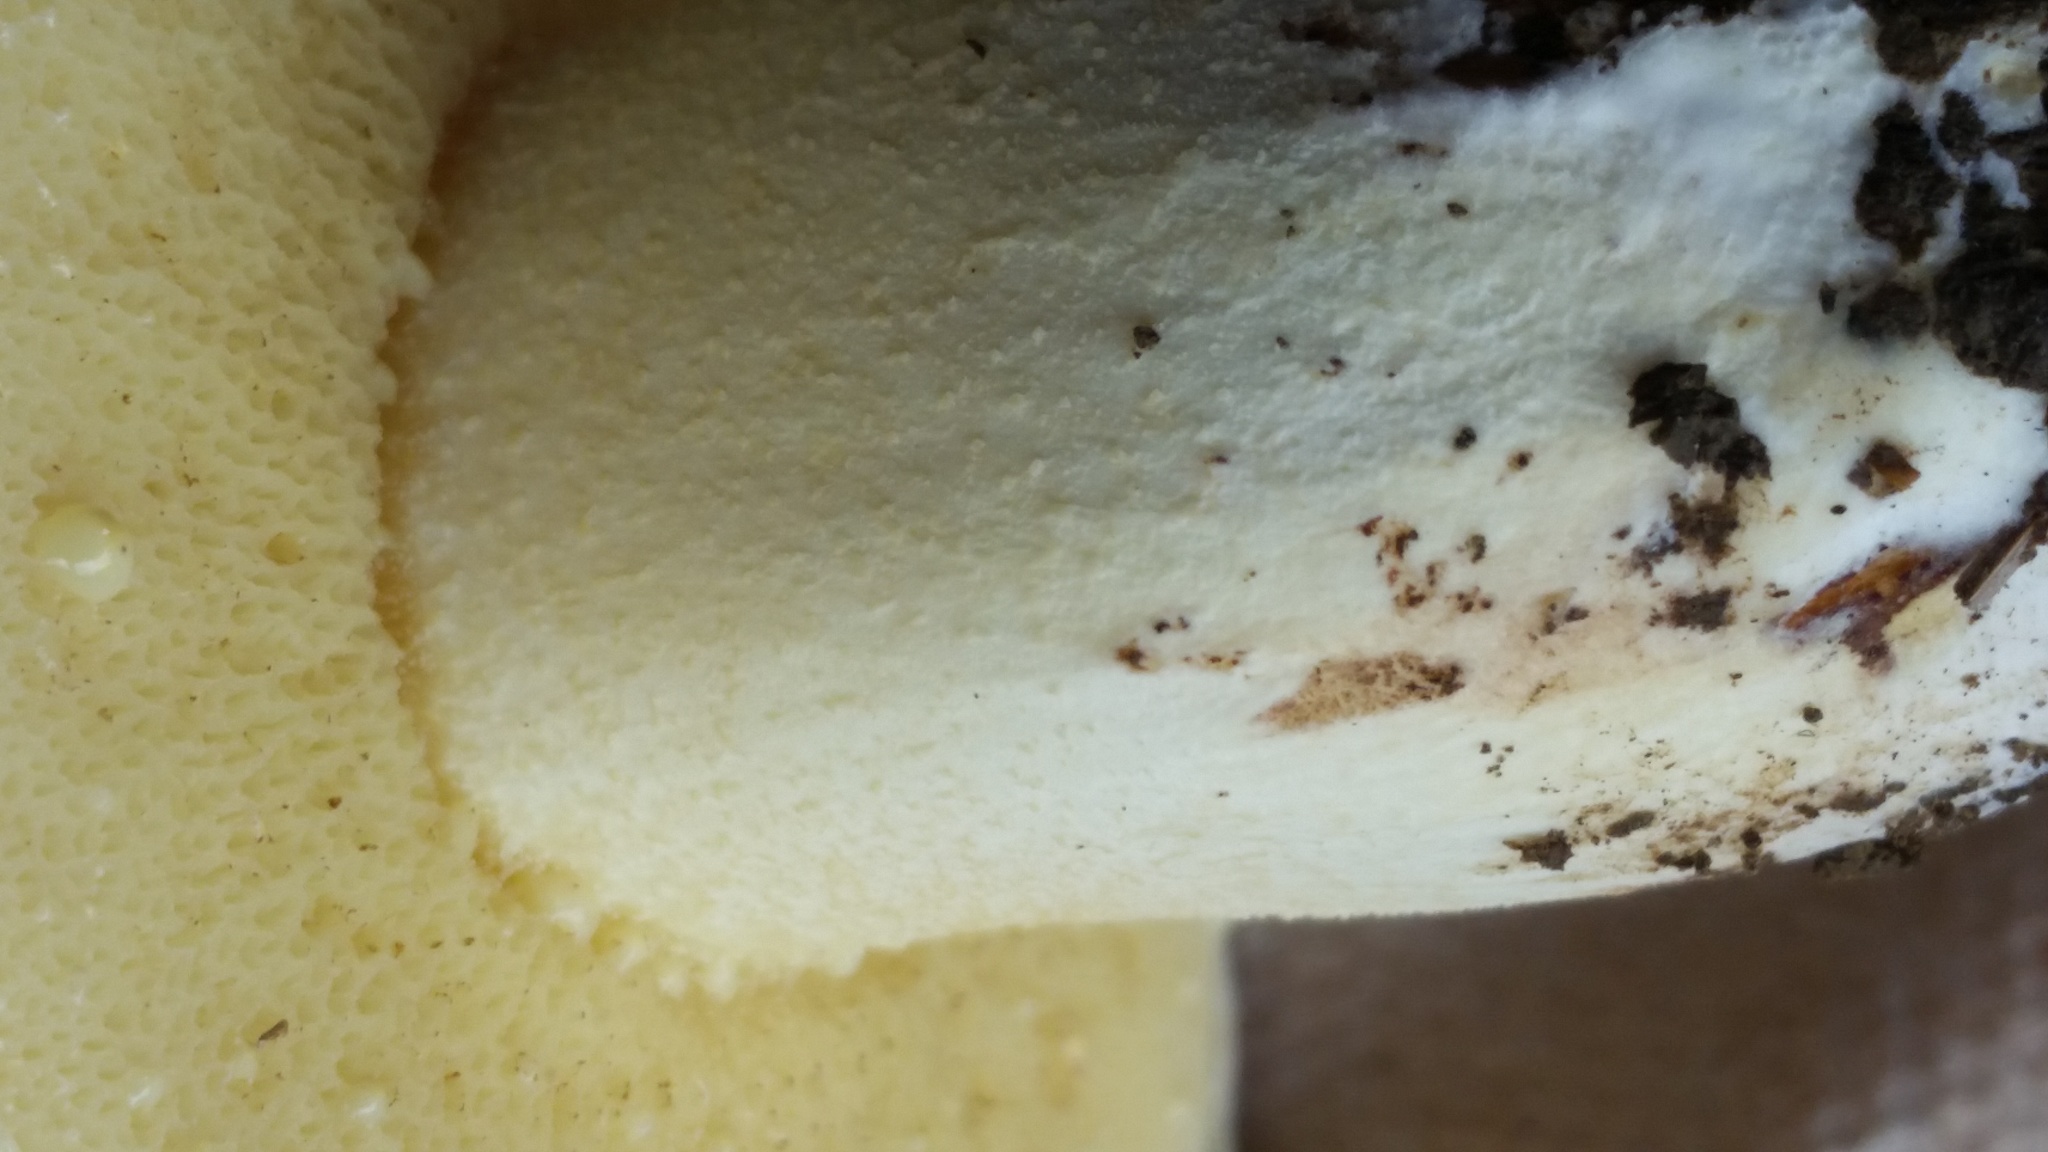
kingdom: Fungi
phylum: Basidiomycota
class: Agaricomycetes
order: Boletales
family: Suillaceae
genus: Suillus
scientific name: Suillus granulatus
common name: Weeping bolete
